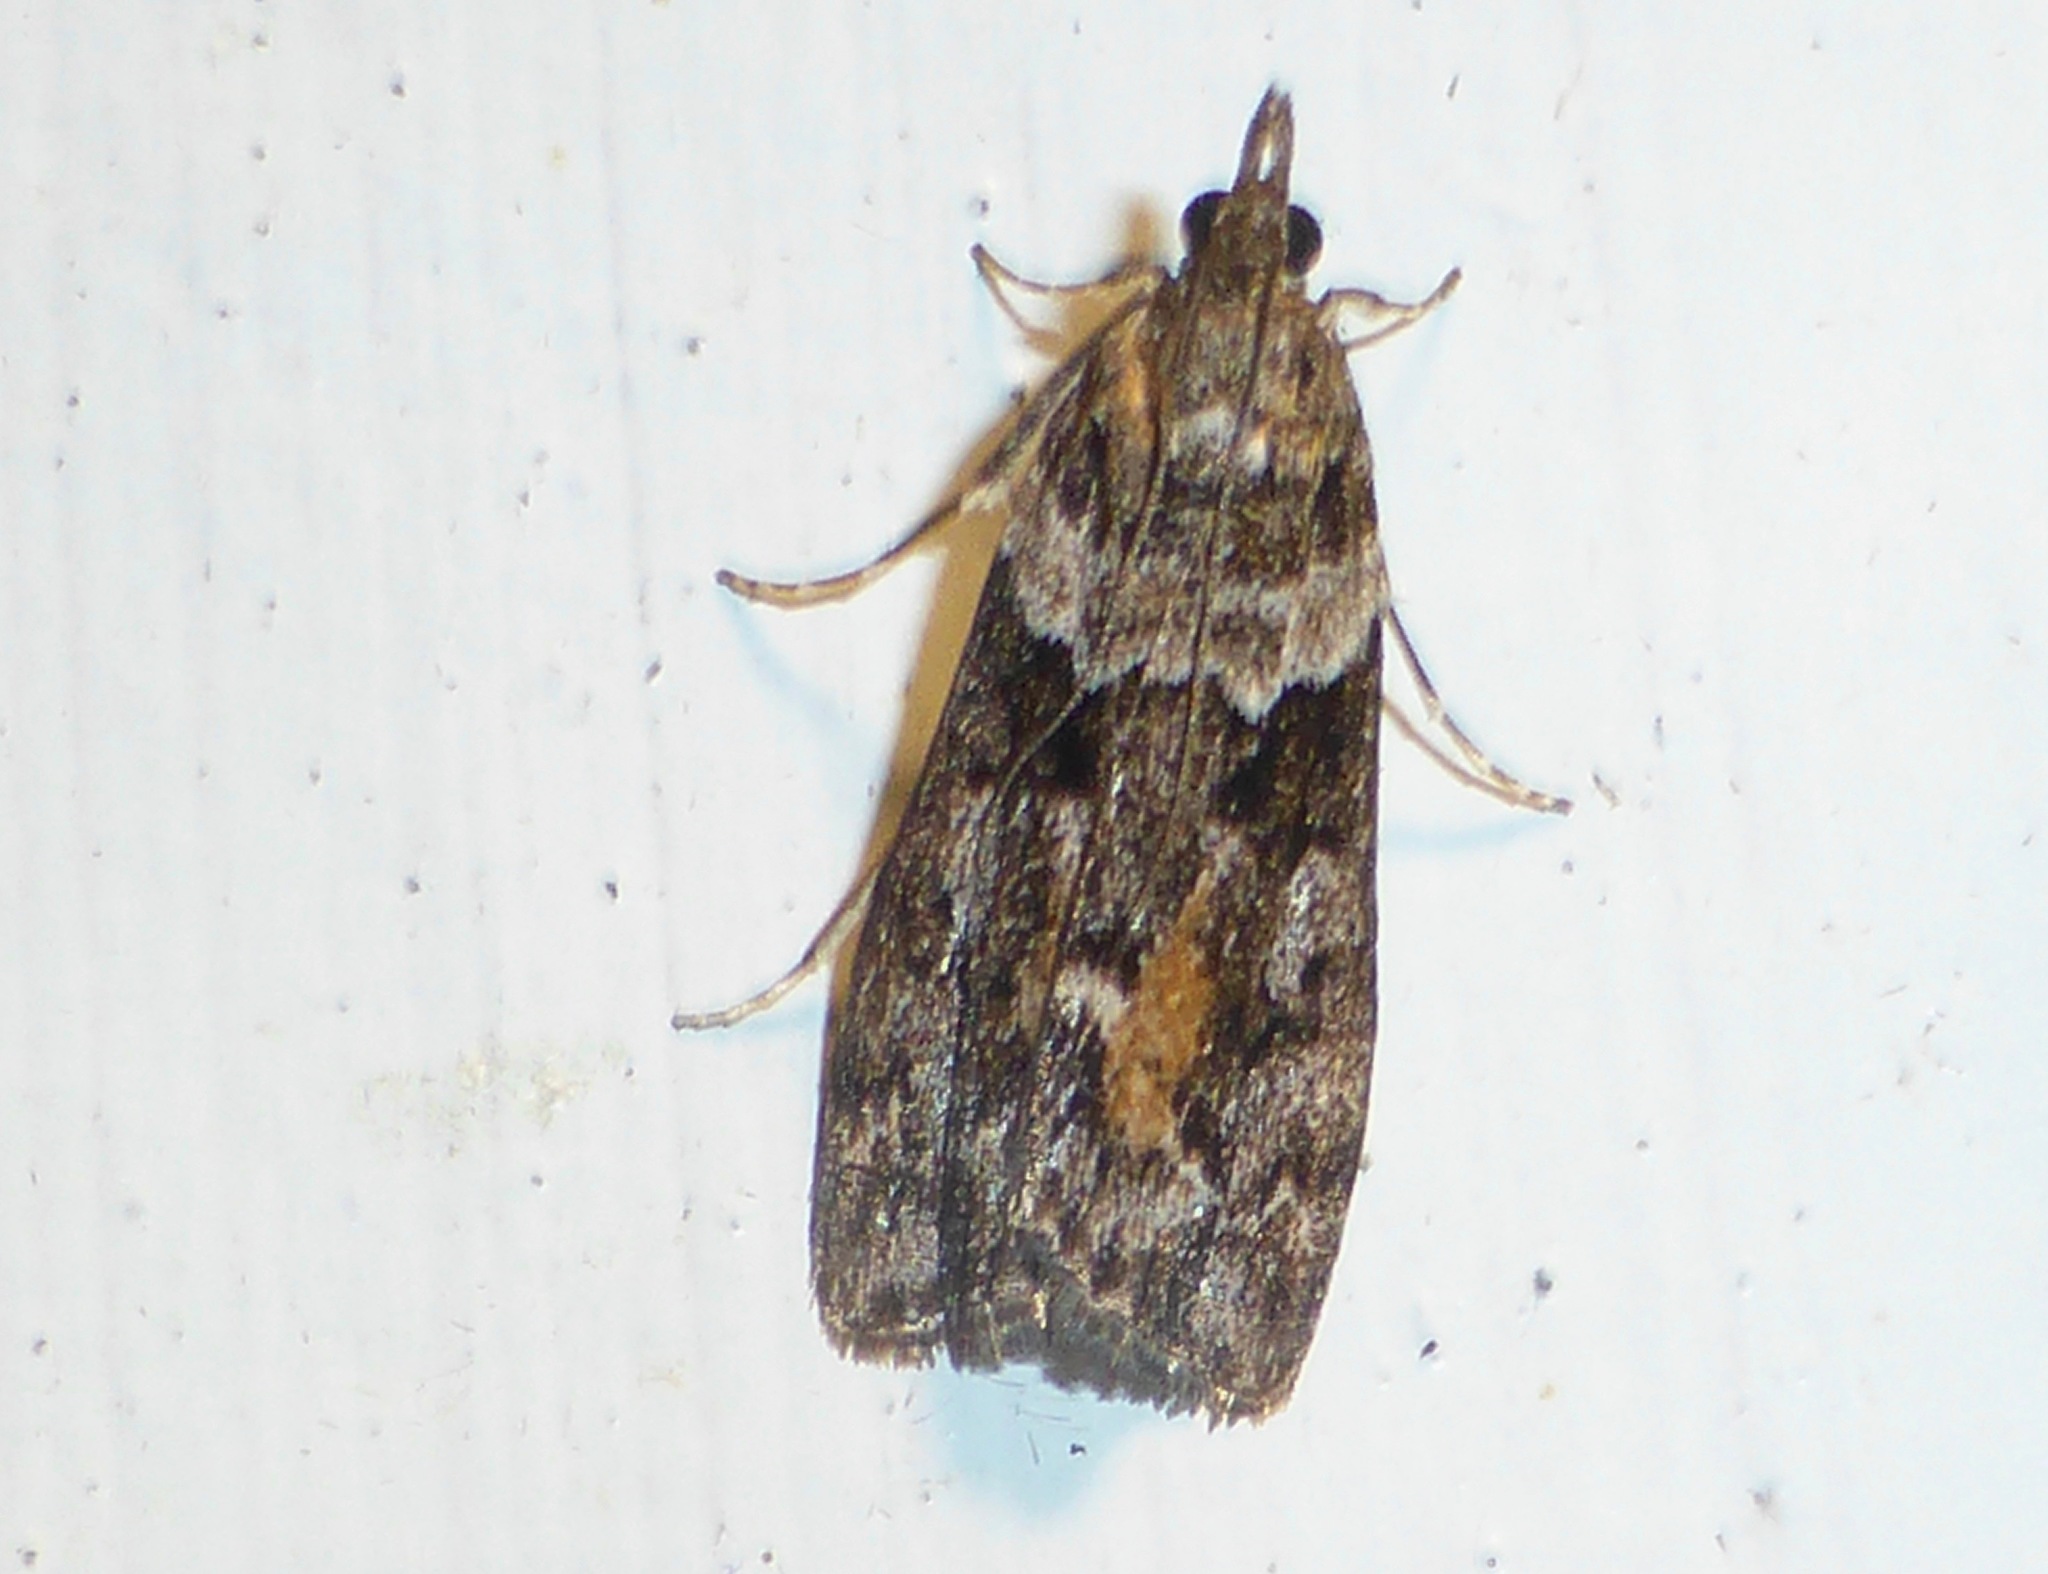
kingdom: Animalia
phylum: Arthropoda
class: Insecta
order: Lepidoptera
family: Crambidae
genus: Eudonia
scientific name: Eudonia submarginalis
